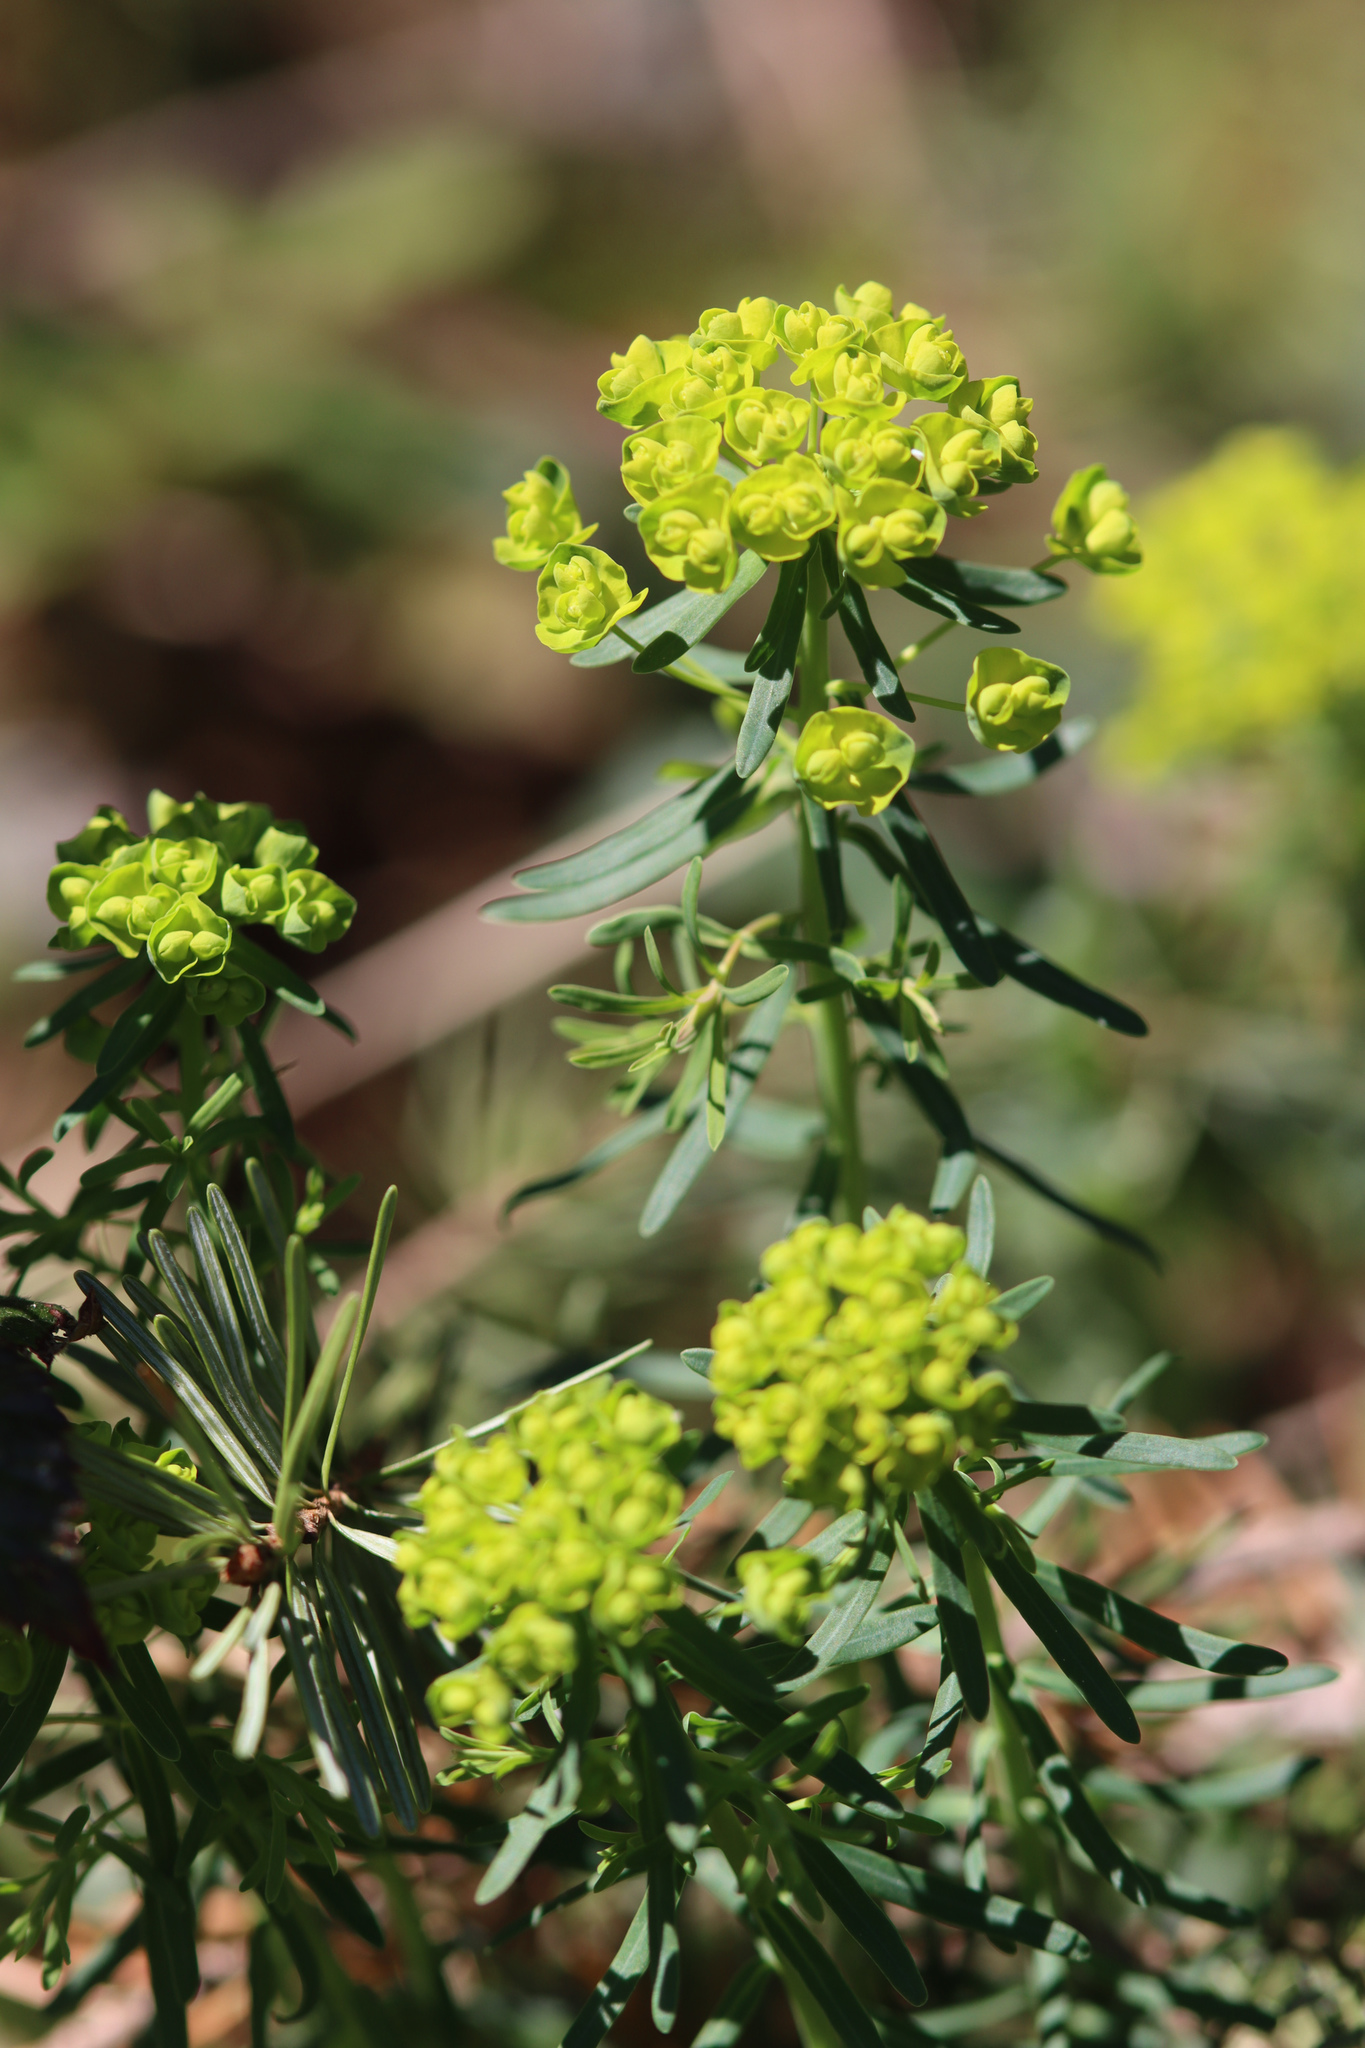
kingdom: Plantae
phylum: Tracheophyta
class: Magnoliopsida
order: Malpighiales
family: Euphorbiaceae
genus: Euphorbia
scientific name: Euphorbia cyparissias
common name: Cypress spurge
